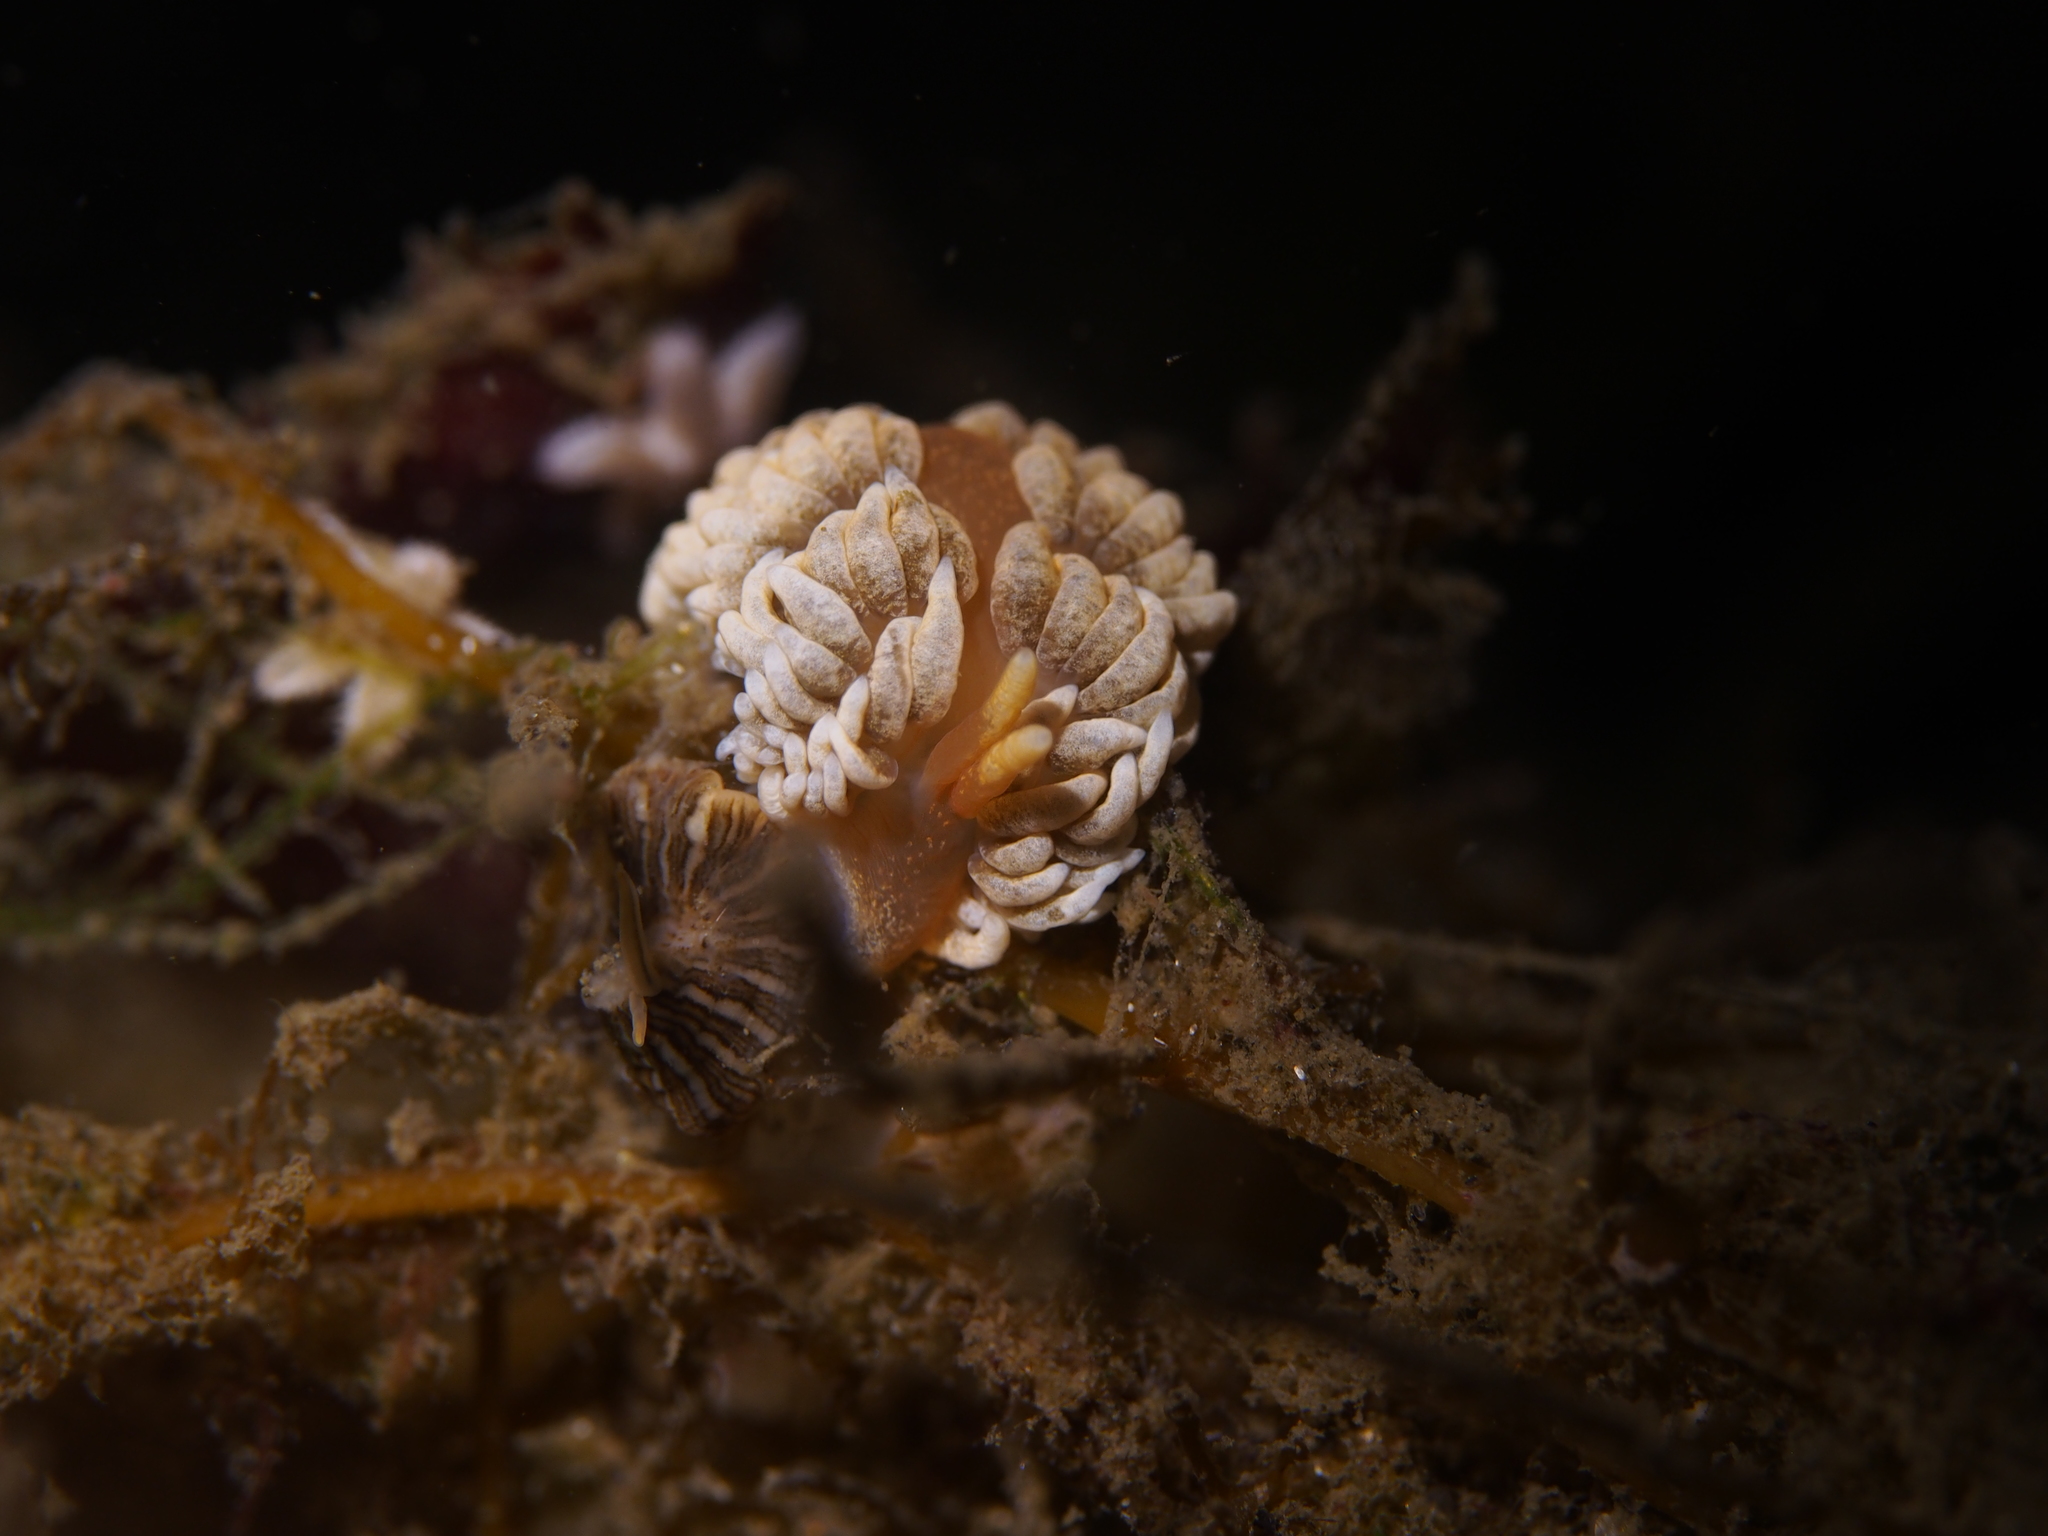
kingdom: Animalia
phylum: Mollusca
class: Gastropoda
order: Nudibranchia
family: Aeolidiidae
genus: Aeolidiella
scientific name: Aeolidiella glauca
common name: Orange-brown aeolid
